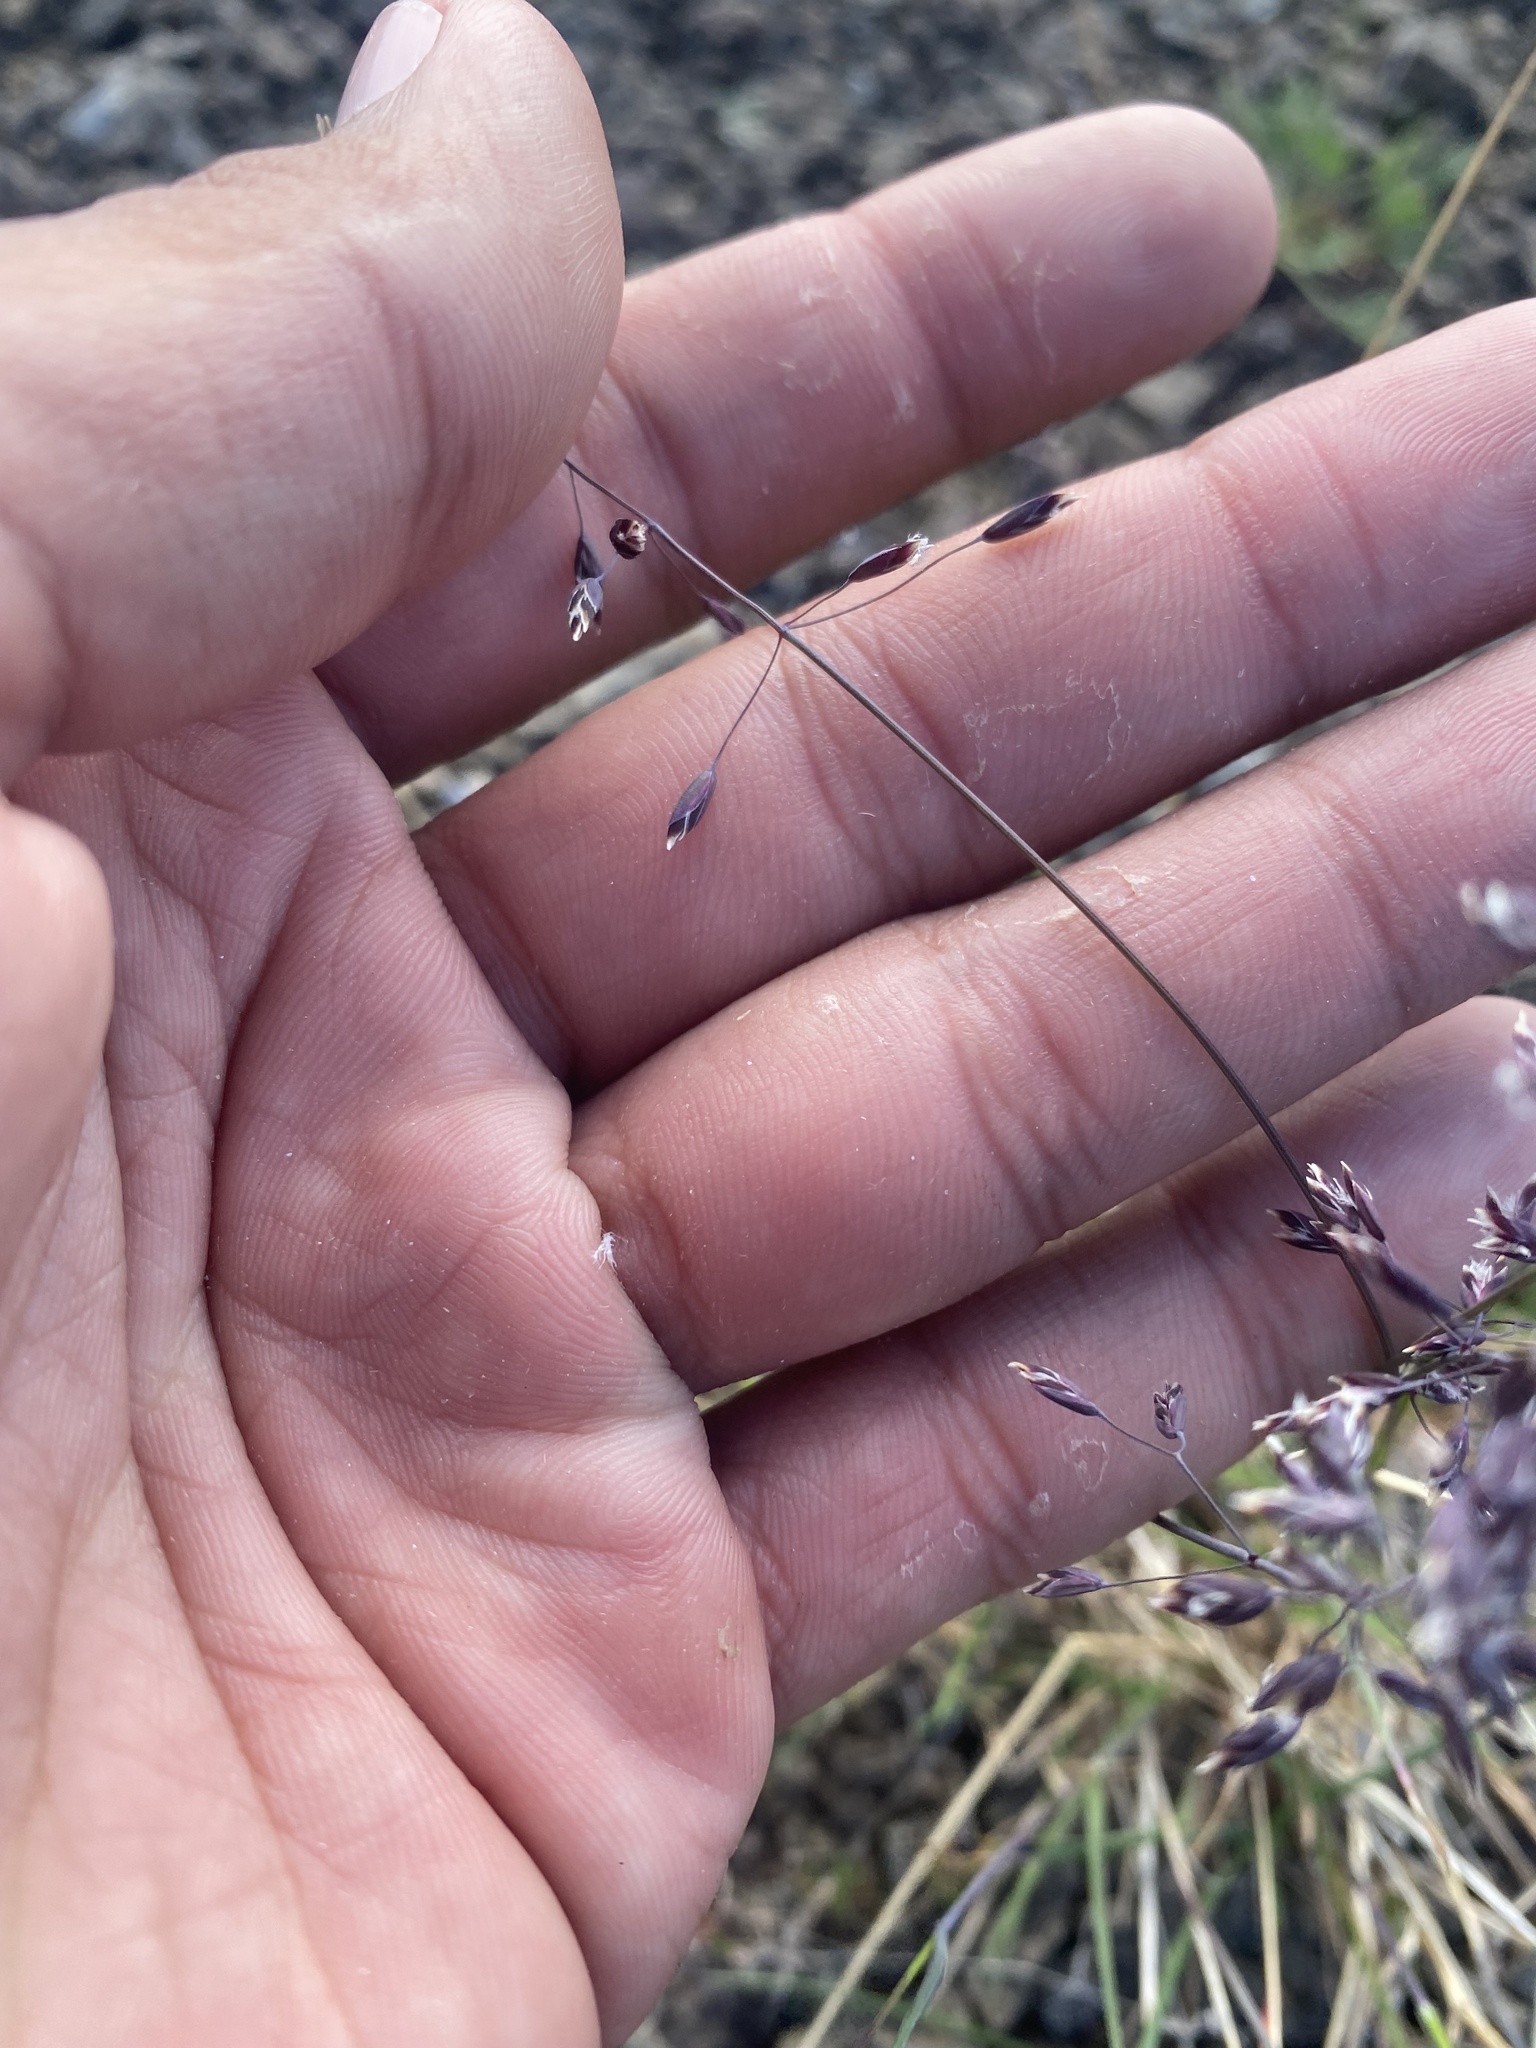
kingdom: Plantae
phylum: Tracheophyta
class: Liliopsida
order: Poales
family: Poaceae
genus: Poa
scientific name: Poa arctica
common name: Arctic bluegrass
